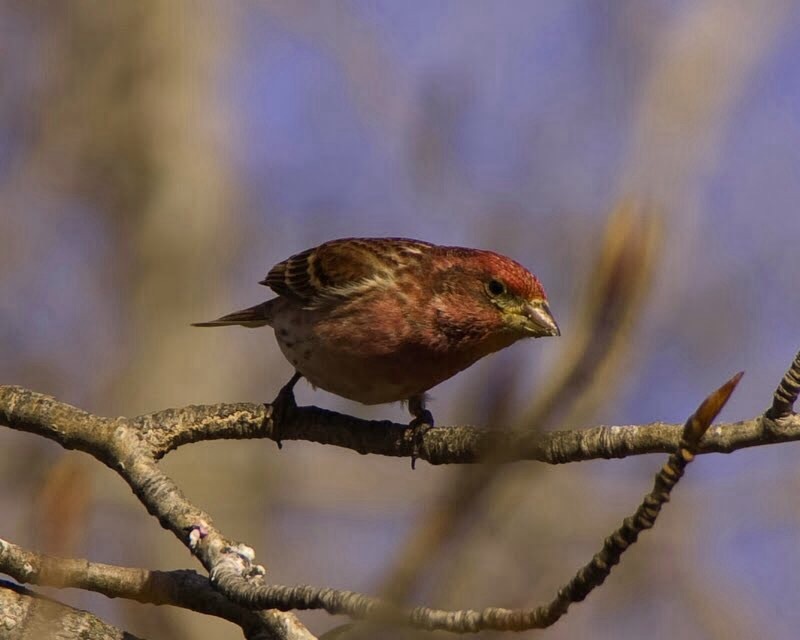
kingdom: Animalia
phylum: Chordata
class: Aves
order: Passeriformes
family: Fringillidae
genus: Haemorhous
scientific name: Haemorhous purpureus
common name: Purple finch
